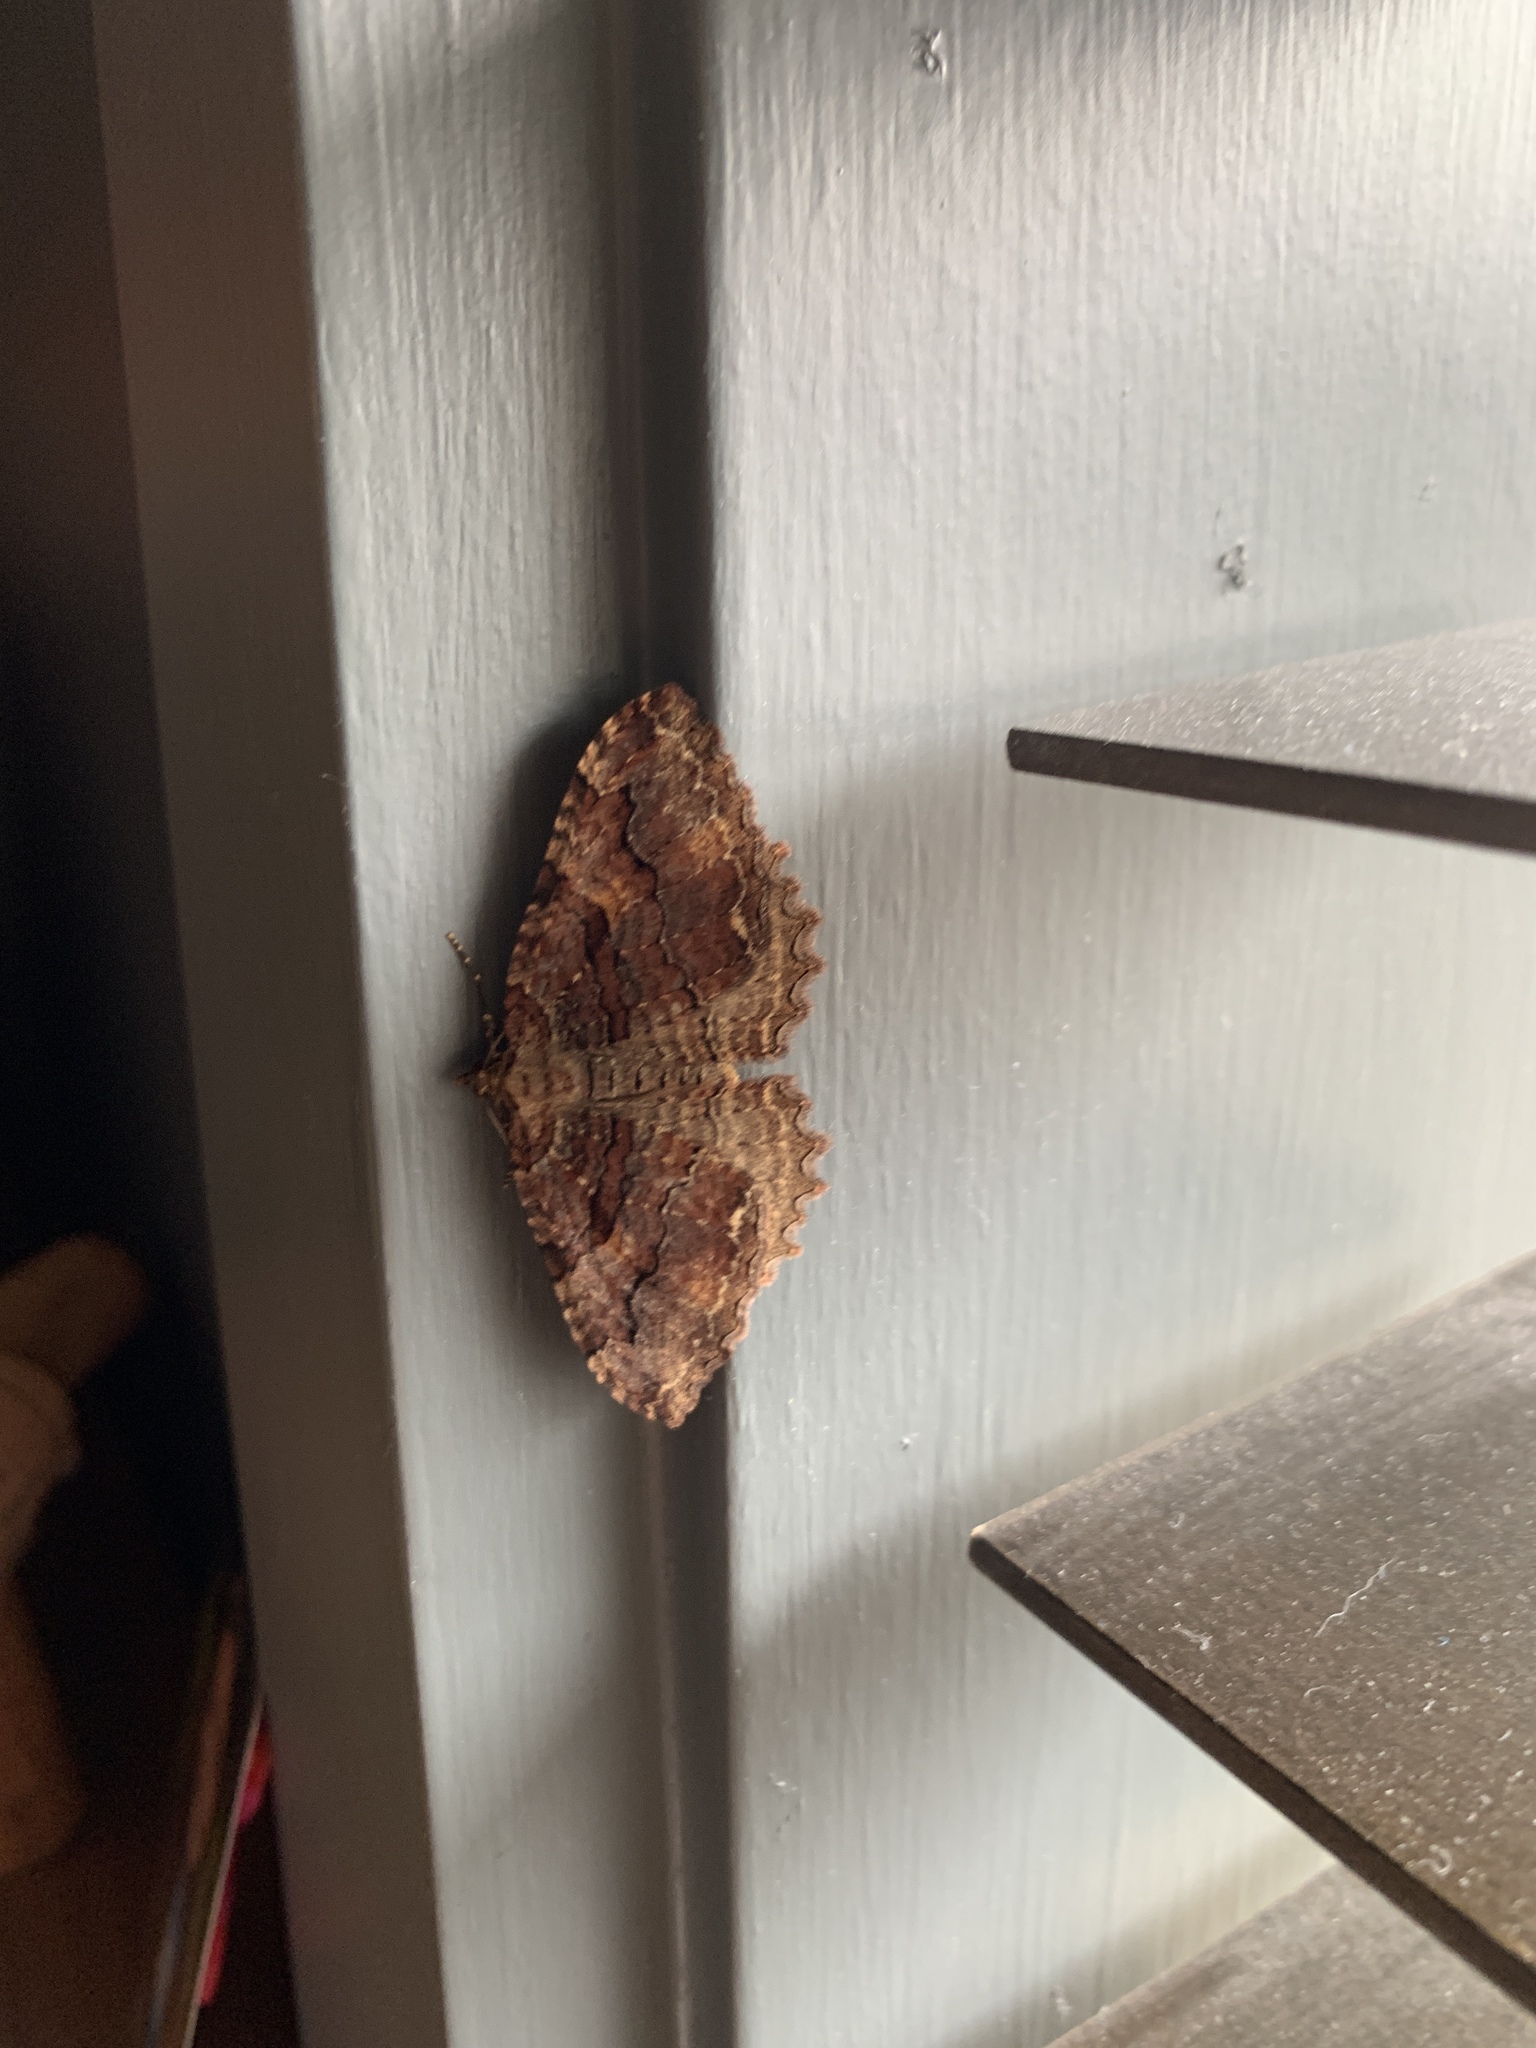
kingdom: Animalia
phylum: Arthropoda
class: Insecta
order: Lepidoptera
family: Geometridae
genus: Triphosa
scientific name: Triphosa haesitata
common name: Tissue moth
